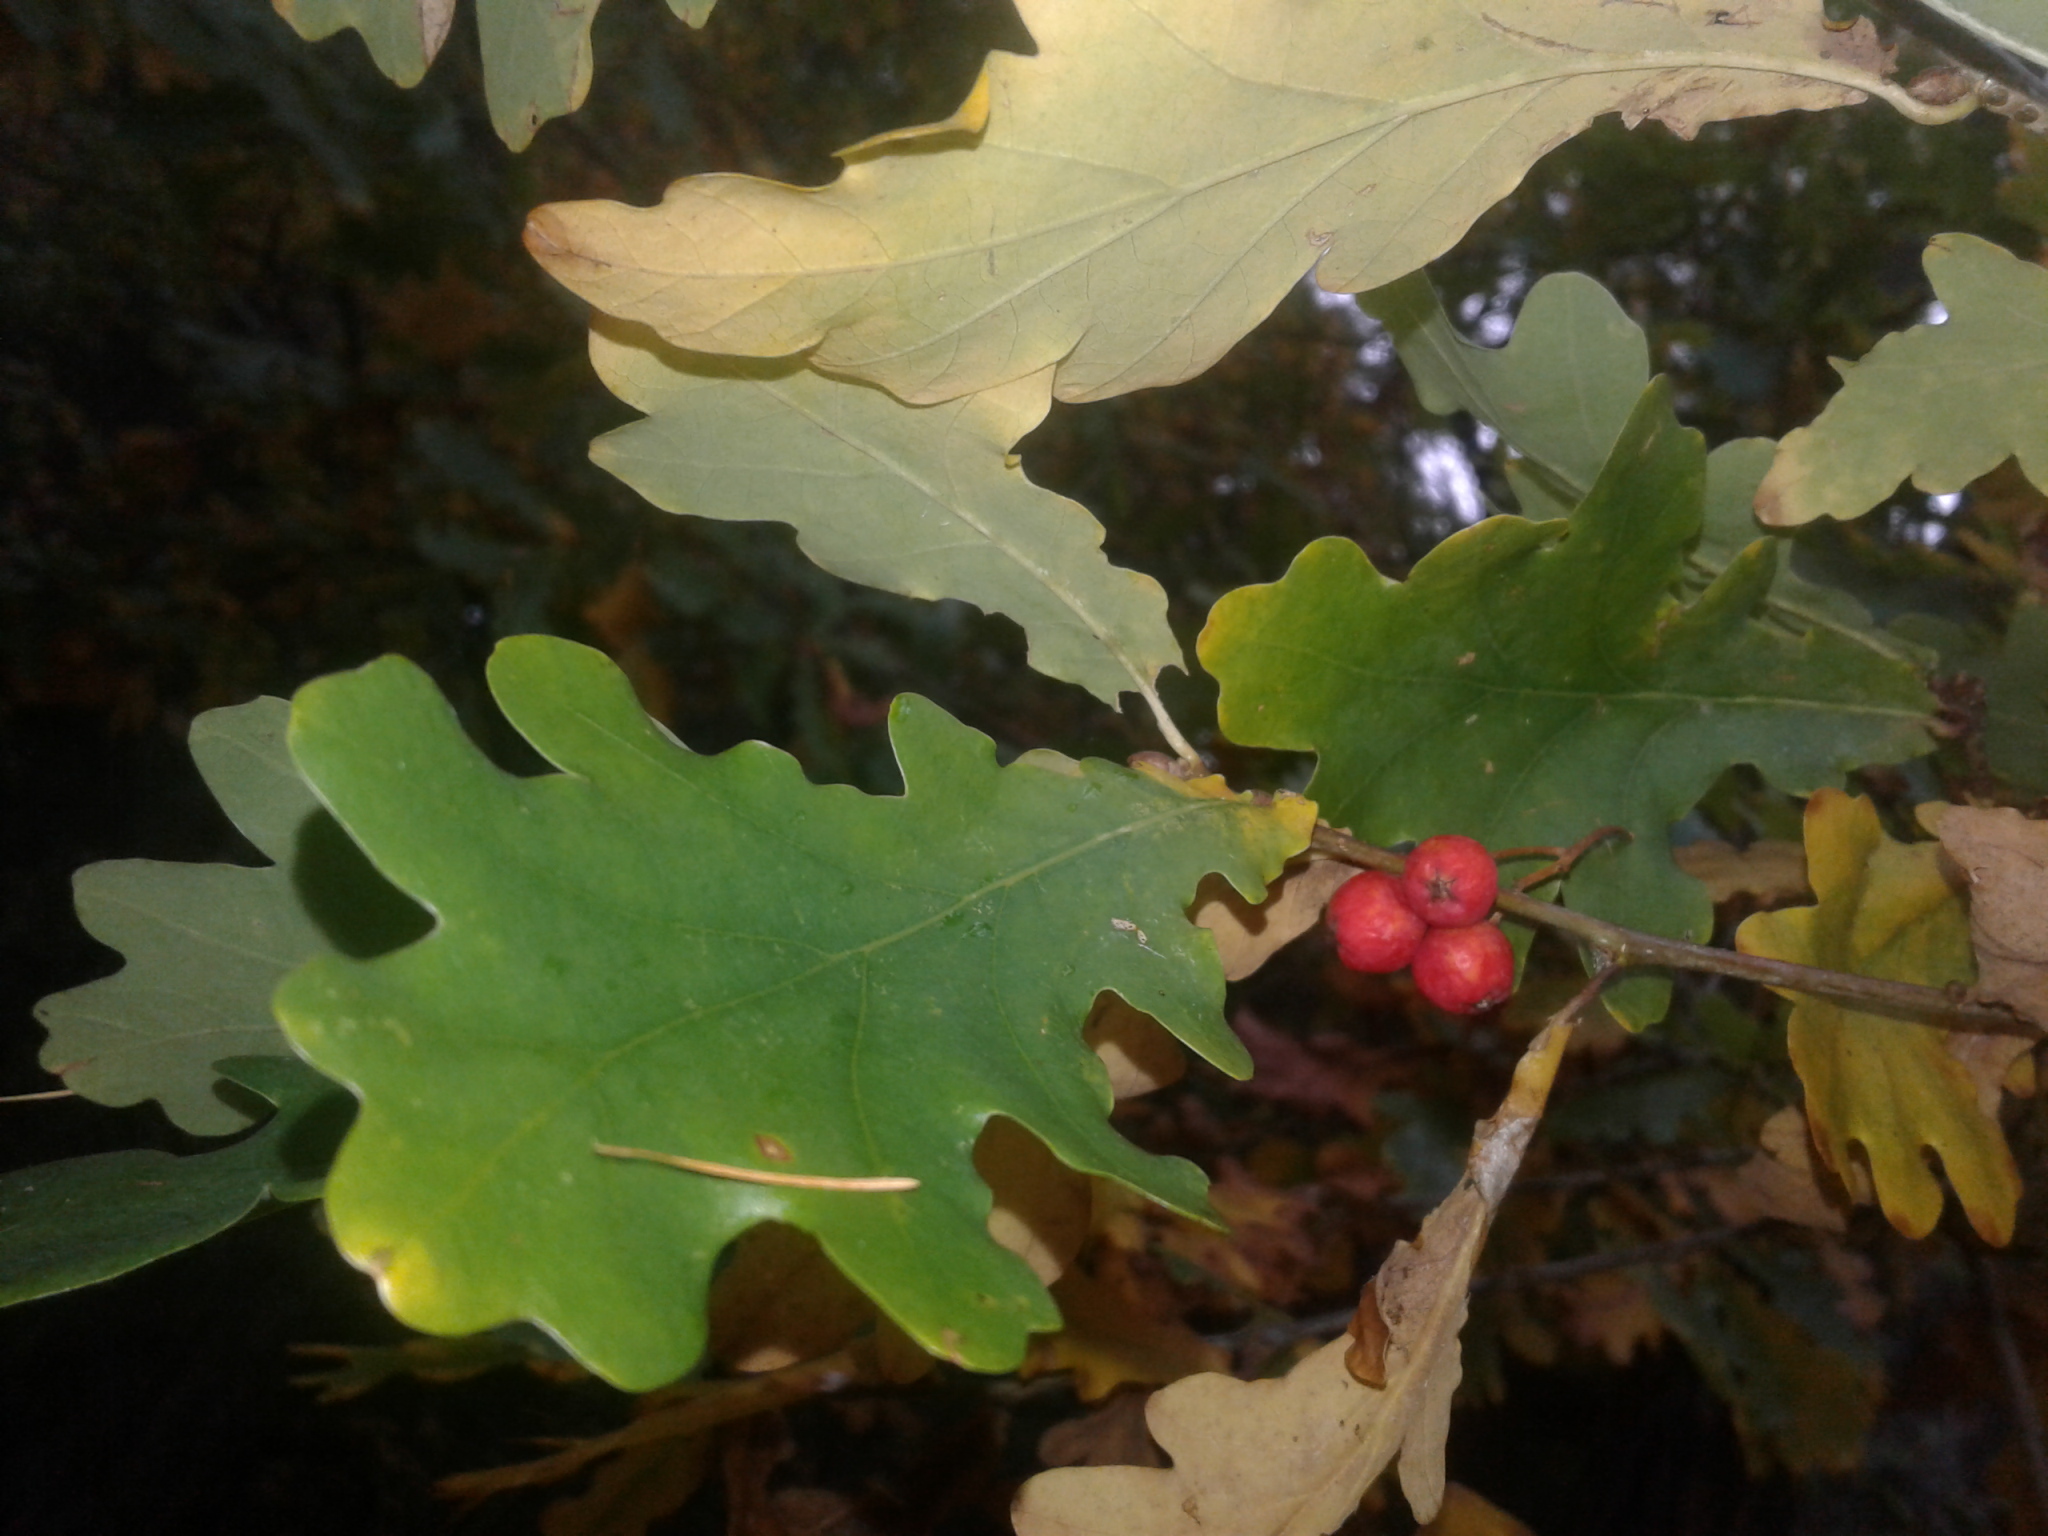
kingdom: Plantae
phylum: Tracheophyta
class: Magnoliopsida
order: Fagales
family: Fagaceae
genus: Quercus
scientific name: Quercus robur
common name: Pedunculate oak
